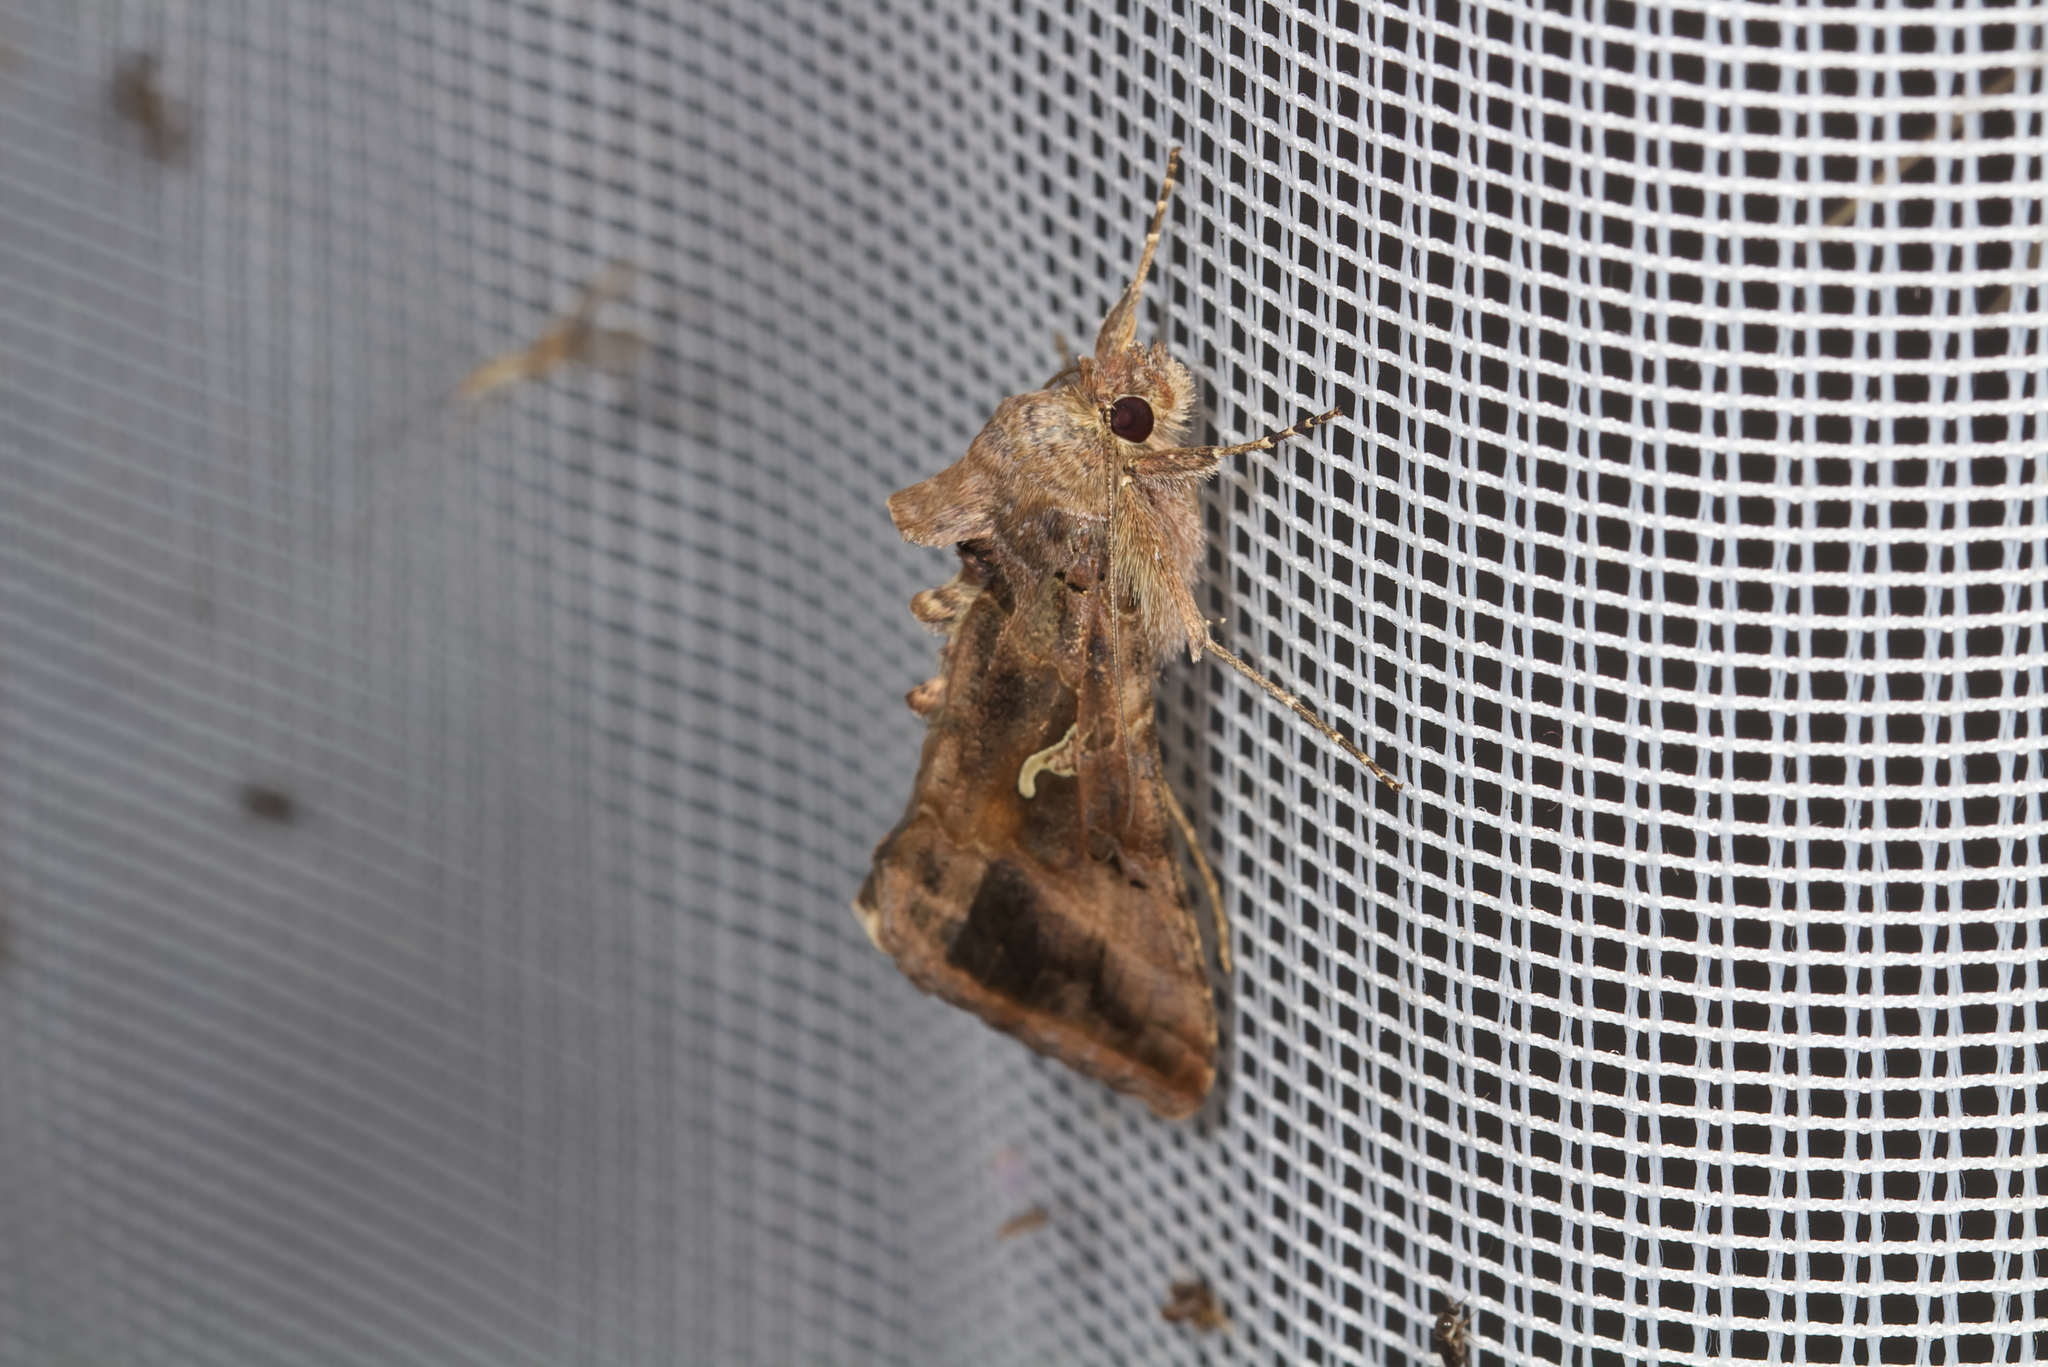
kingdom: Animalia
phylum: Arthropoda
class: Insecta
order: Lepidoptera
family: Noctuidae
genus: Autographa
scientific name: Autographa gamma
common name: Silver y
